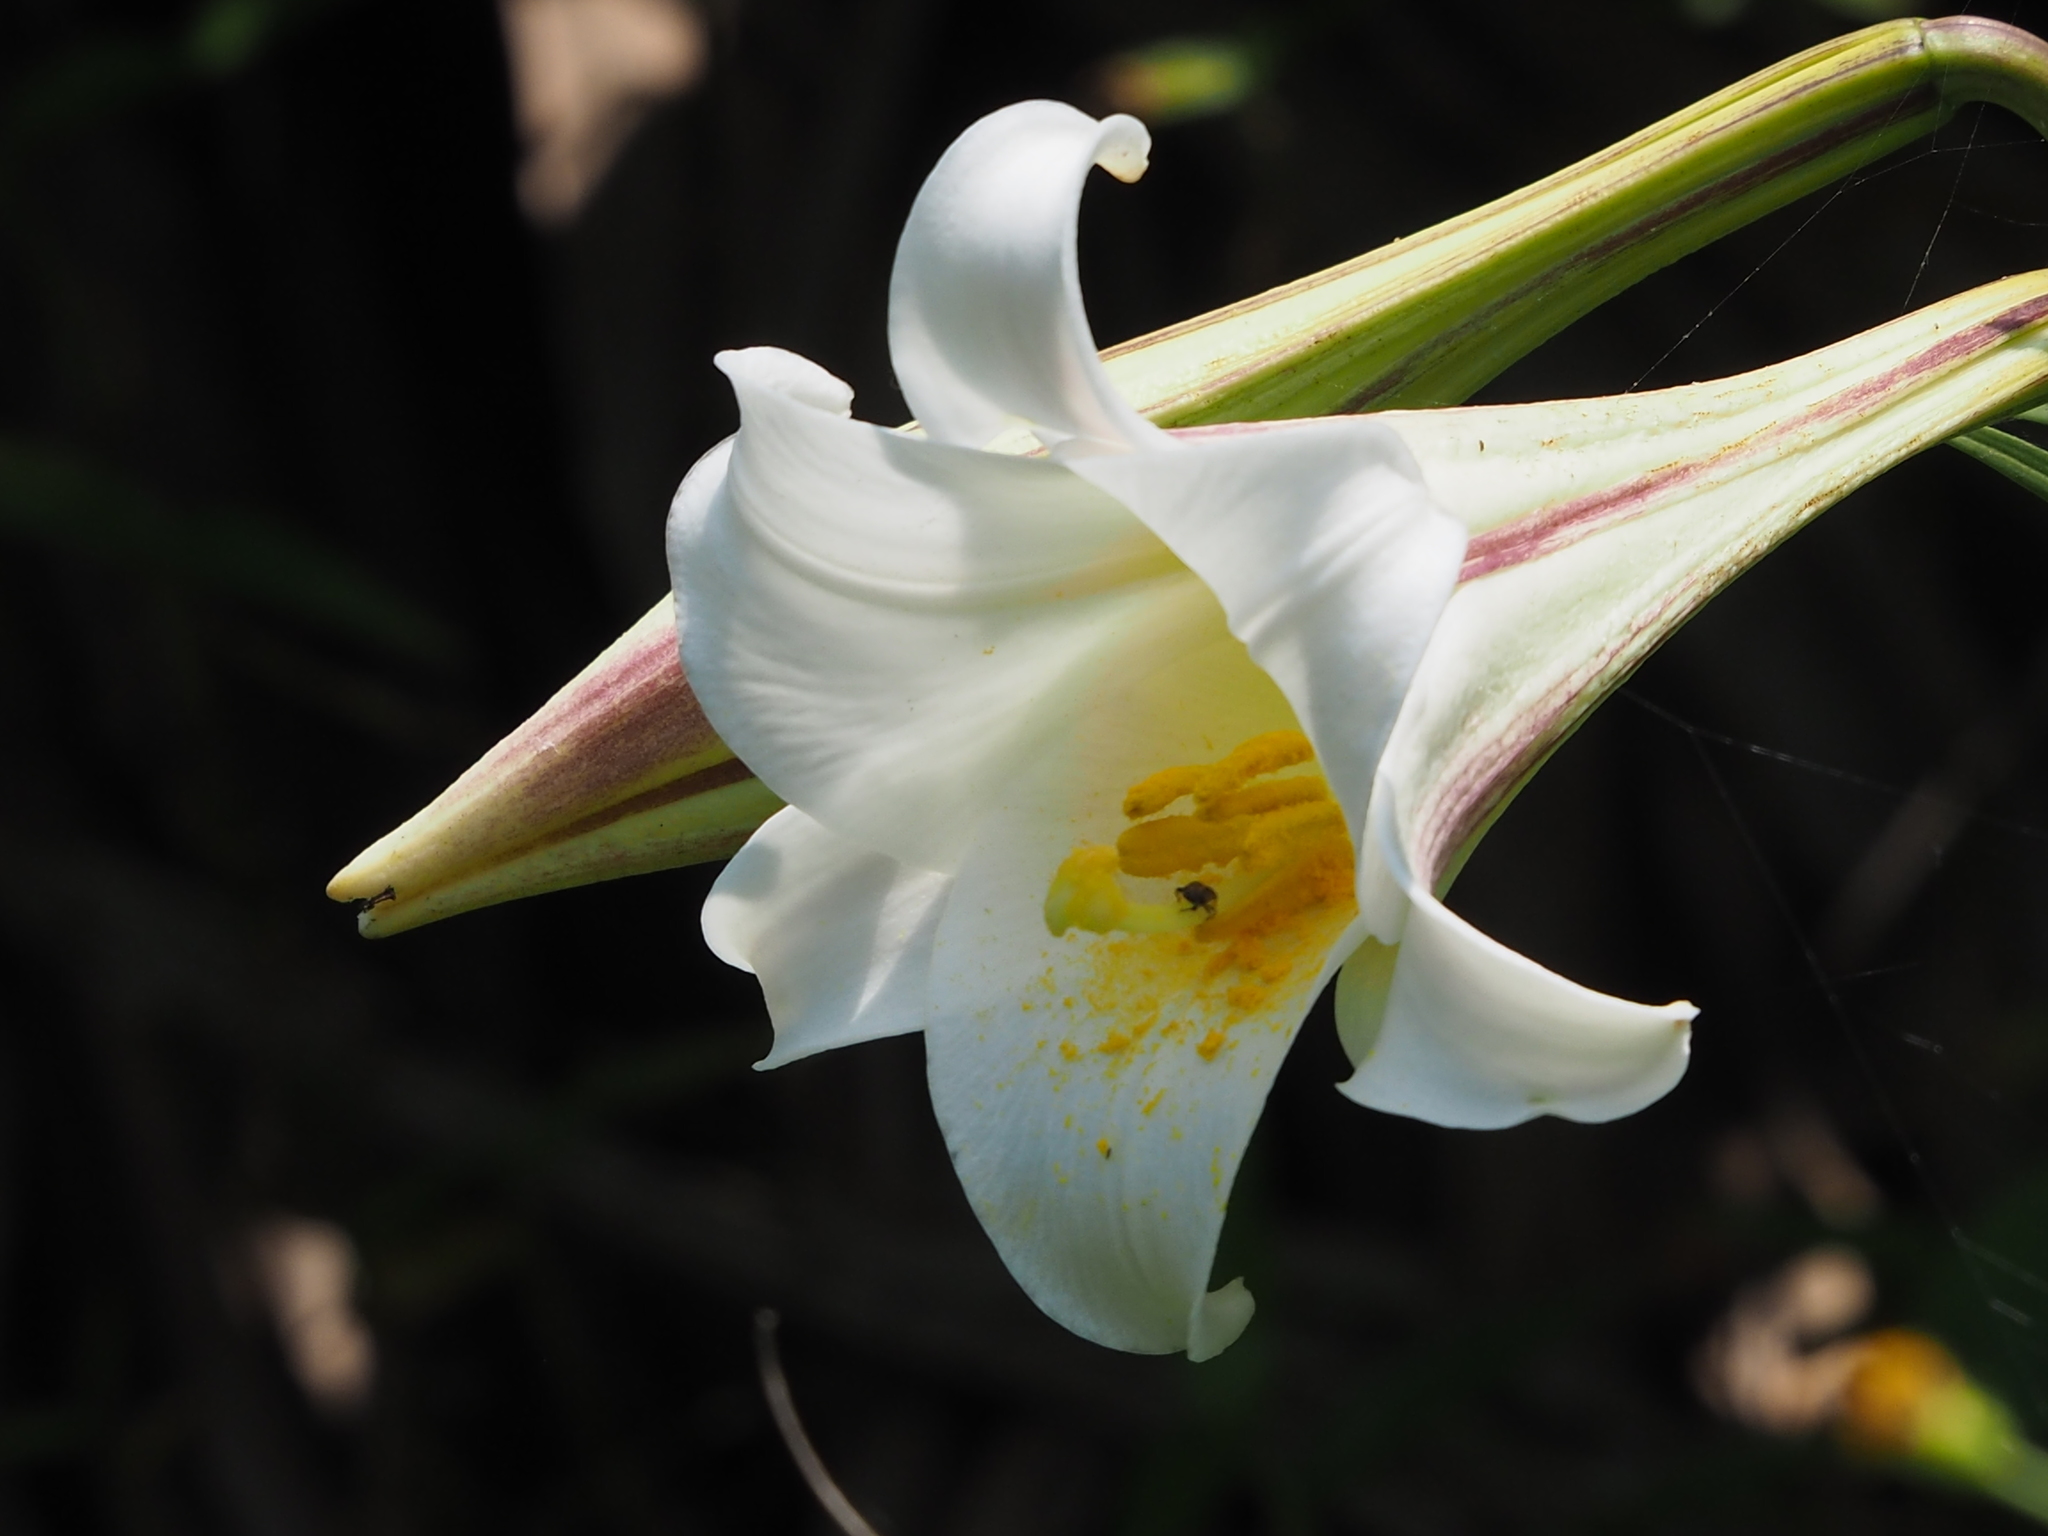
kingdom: Plantae
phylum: Tracheophyta
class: Liliopsida
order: Liliales
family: Liliaceae
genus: Lilium
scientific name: Lilium longiflorum
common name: Easter lily
